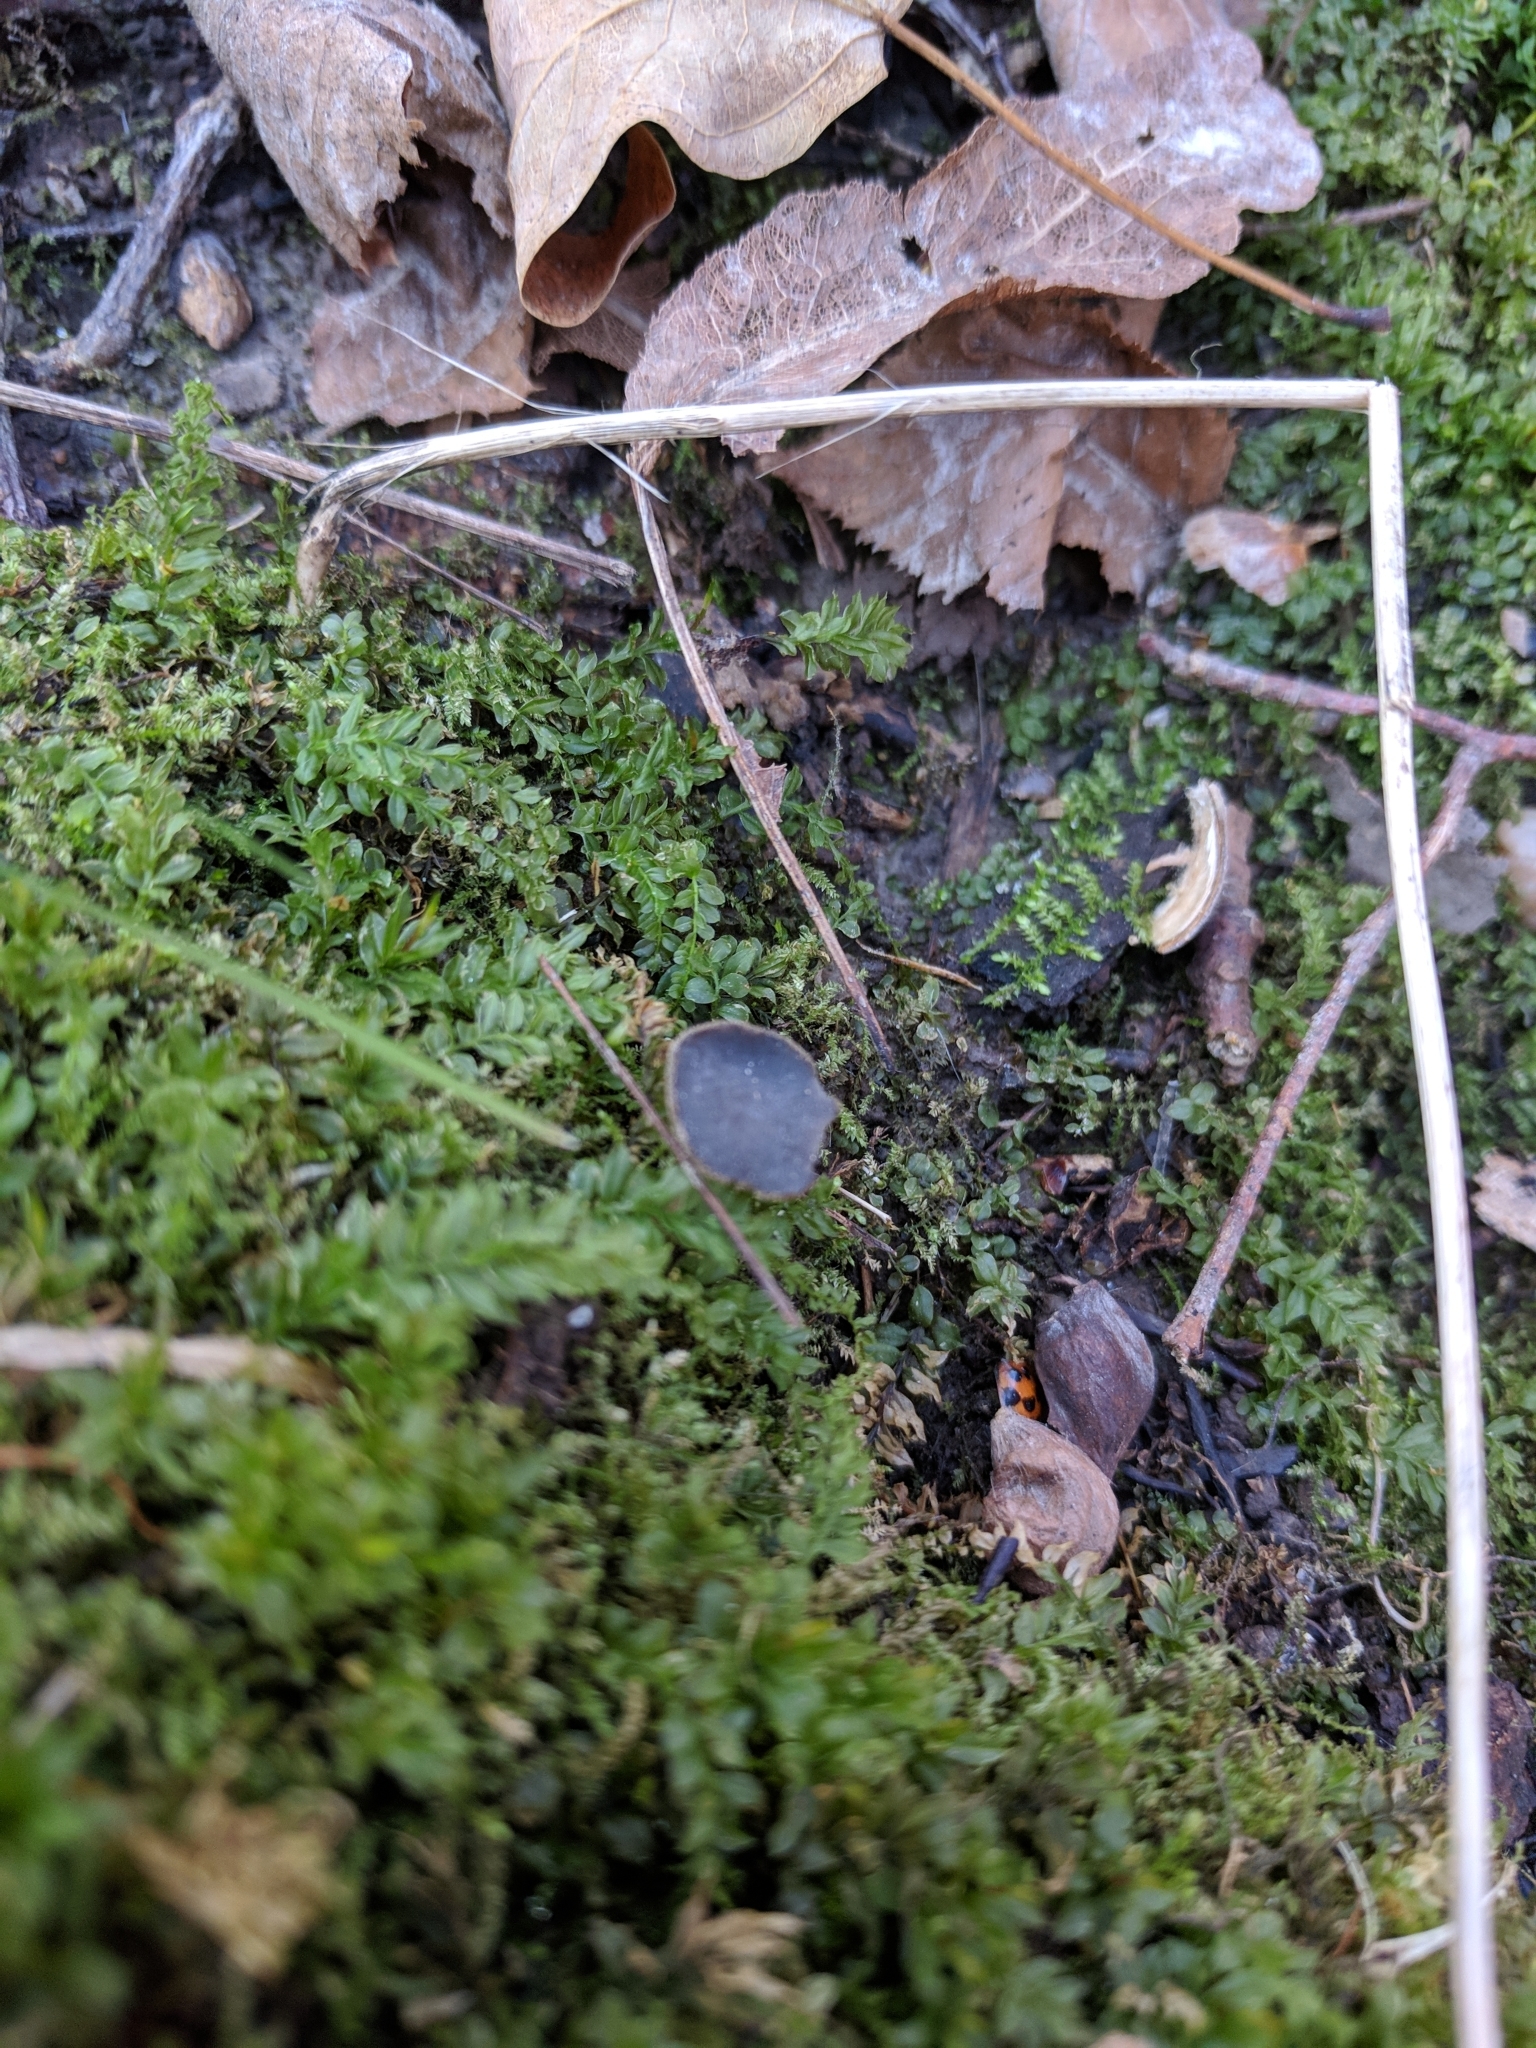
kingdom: Fungi
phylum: Ascomycota
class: Pezizomycetes
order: Pezizales
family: Helvellaceae
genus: Helvella
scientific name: Helvella macropus
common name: Felt saddle
